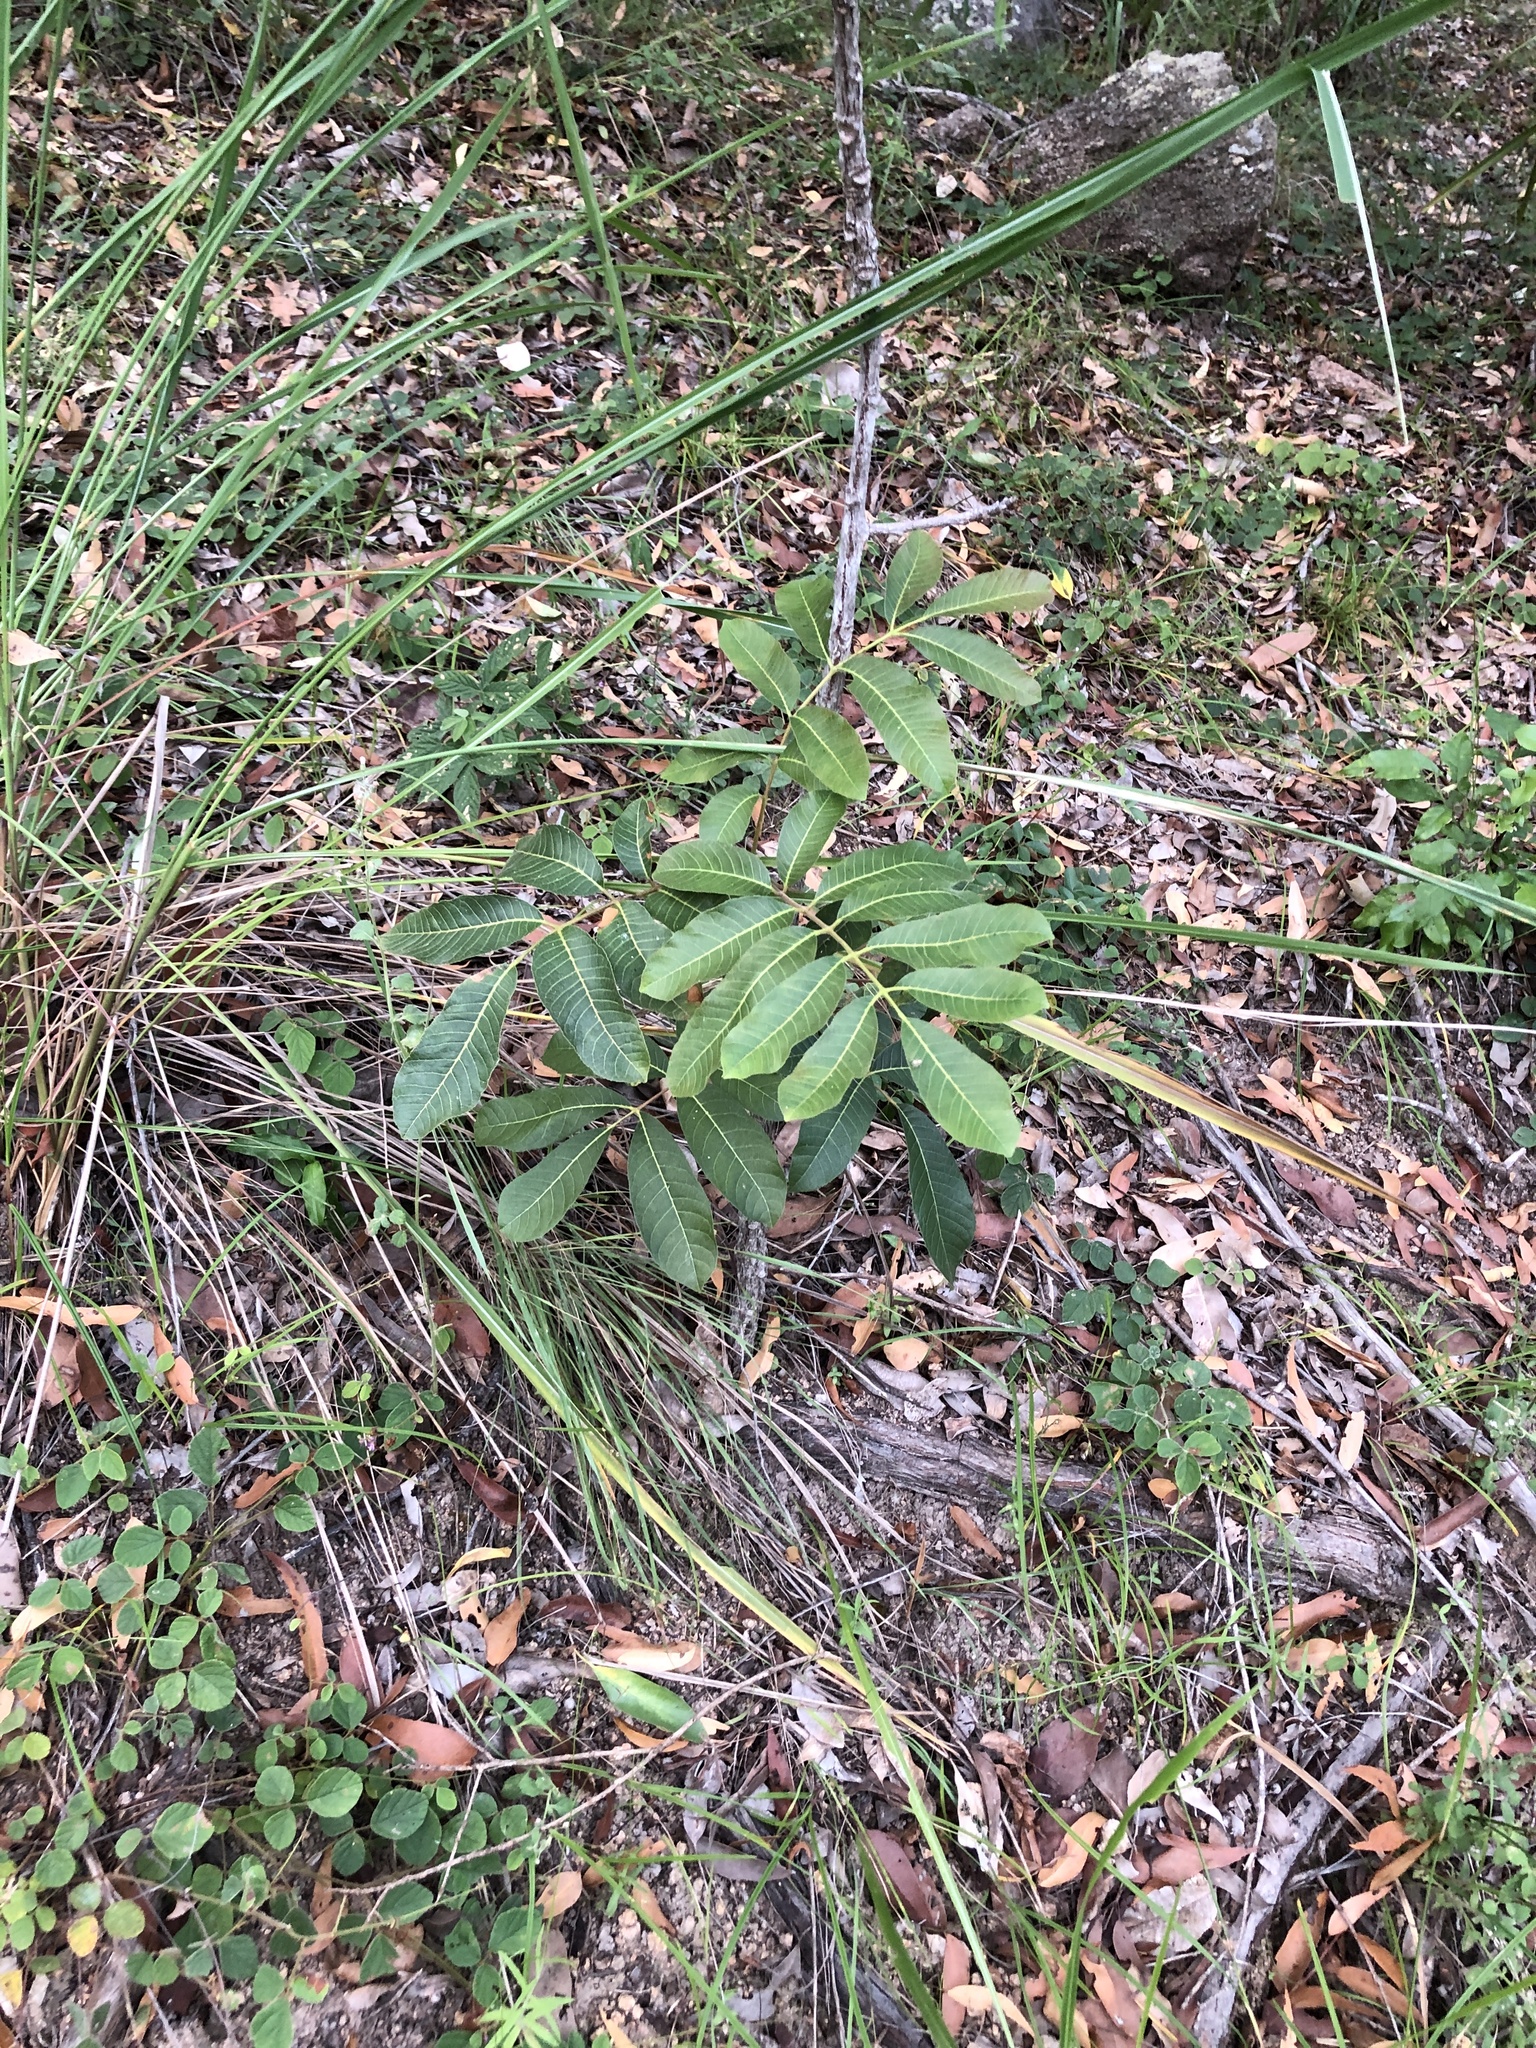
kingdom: Plantae
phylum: Tracheophyta
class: Magnoliopsida
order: Sapindales
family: Burseraceae
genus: Canarium
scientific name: Canarium australianum
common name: Island white-beech
